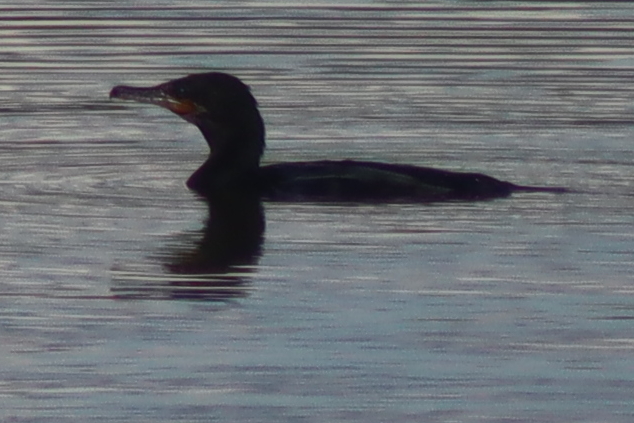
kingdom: Animalia
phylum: Chordata
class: Aves
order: Suliformes
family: Phalacrocoracidae
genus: Phalacrocorax
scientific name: Phalacrocorax brasilianus
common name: Neotropic cormorant
